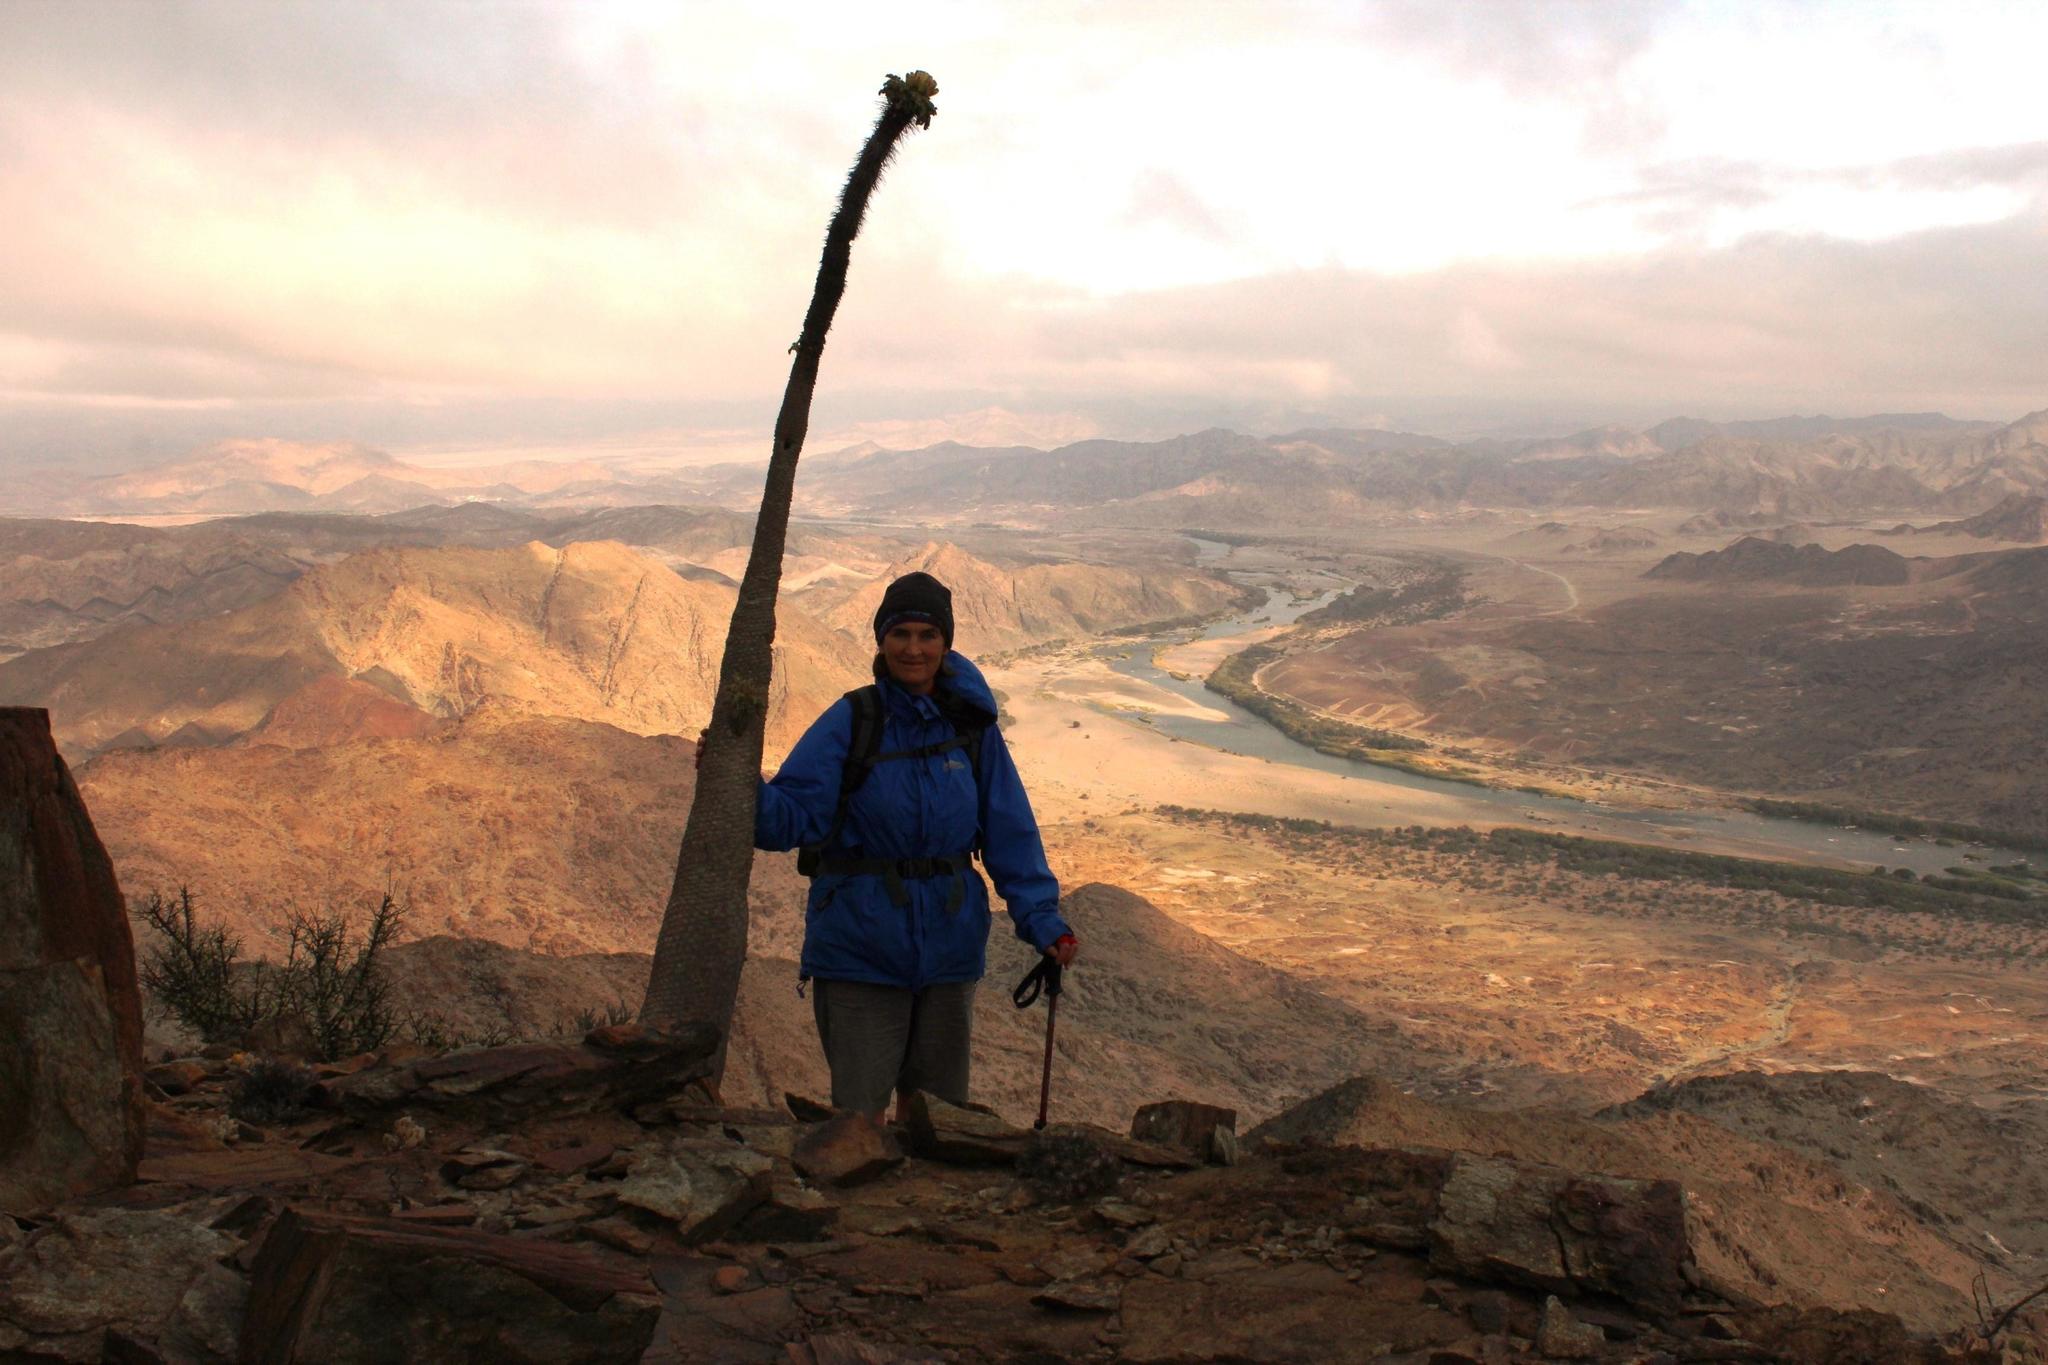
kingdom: Plantae
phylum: Tracheophyta
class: Magnoliopsida
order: Gentianales
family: Apocynaceae
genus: Pachypodium
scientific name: Pachypodium namaquanum
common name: Elephant's trunk
